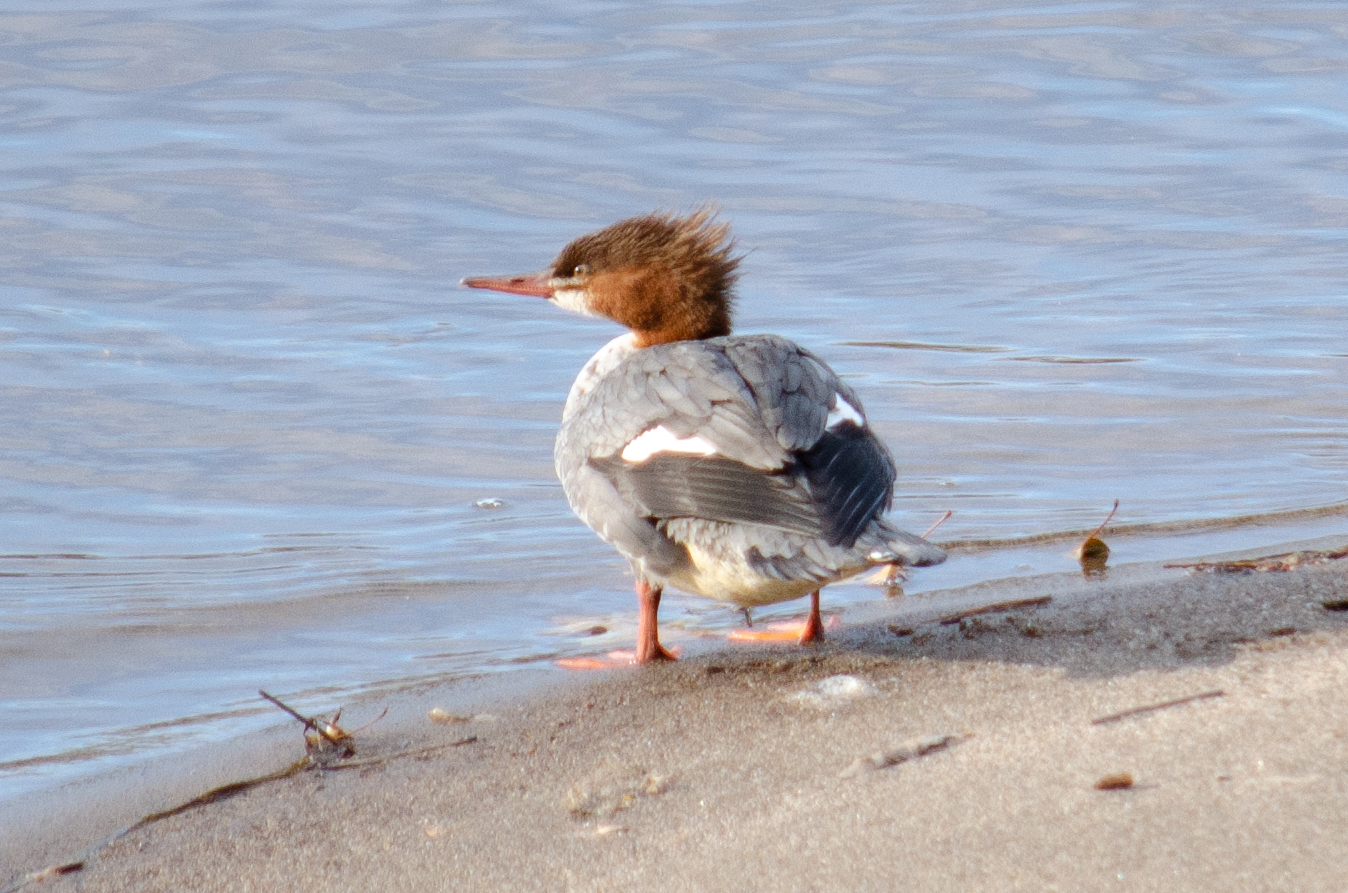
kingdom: Animalia
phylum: Chordata
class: Aves
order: Anseriformes
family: Anatidae
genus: Mergus
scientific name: Mergus merganser
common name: Common merganser
